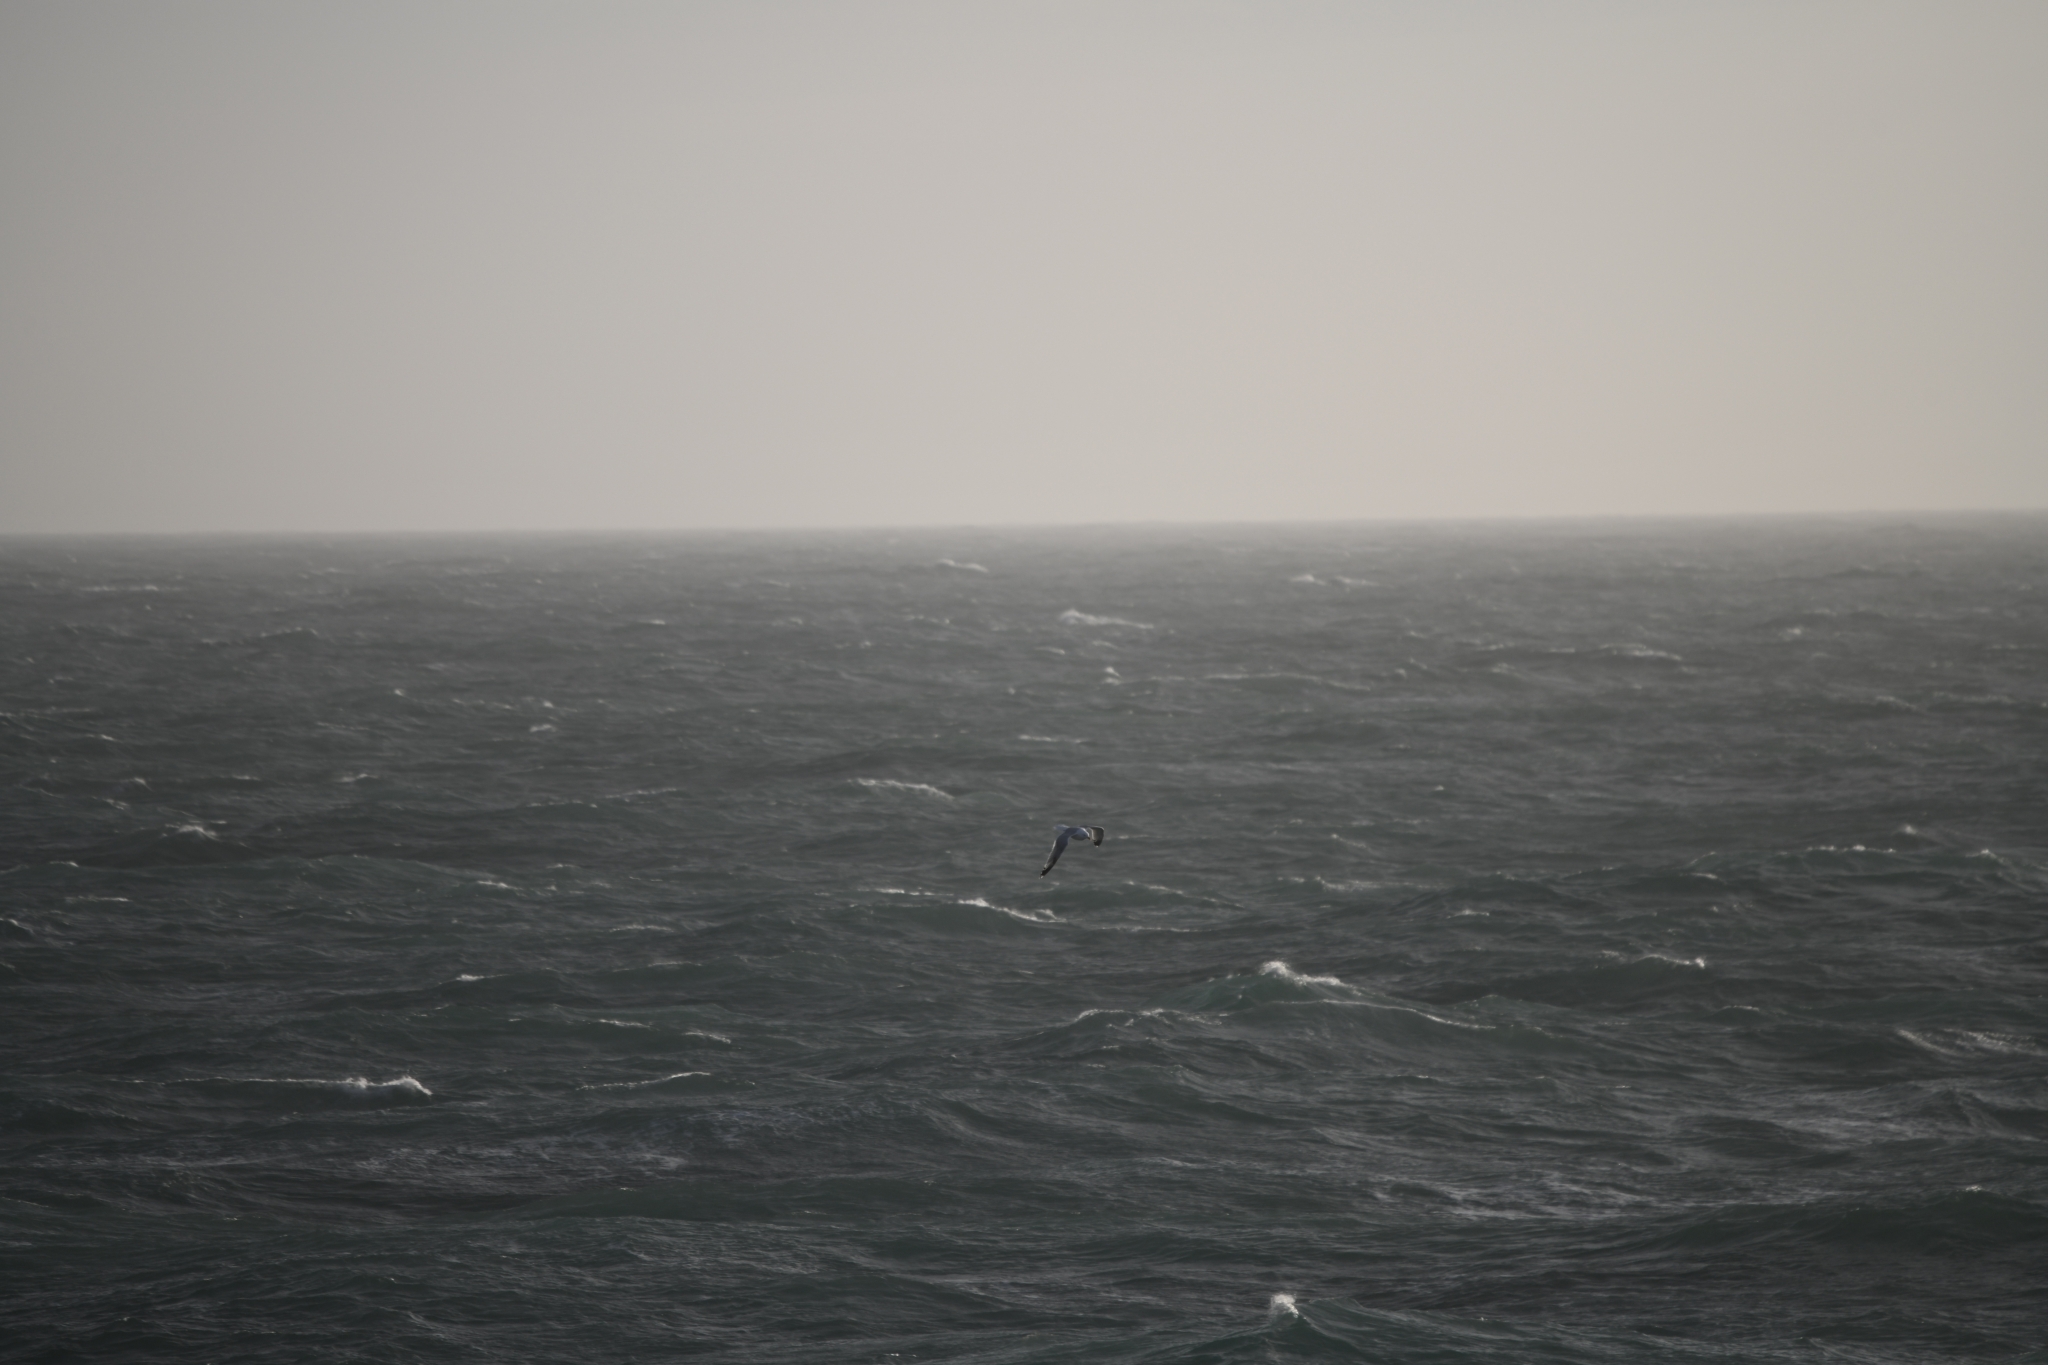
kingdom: Animalia
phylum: Chordata
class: Aves
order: Charadriiformes
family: Laridae
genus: Larus
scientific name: Larus argentatus
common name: Herring gull
